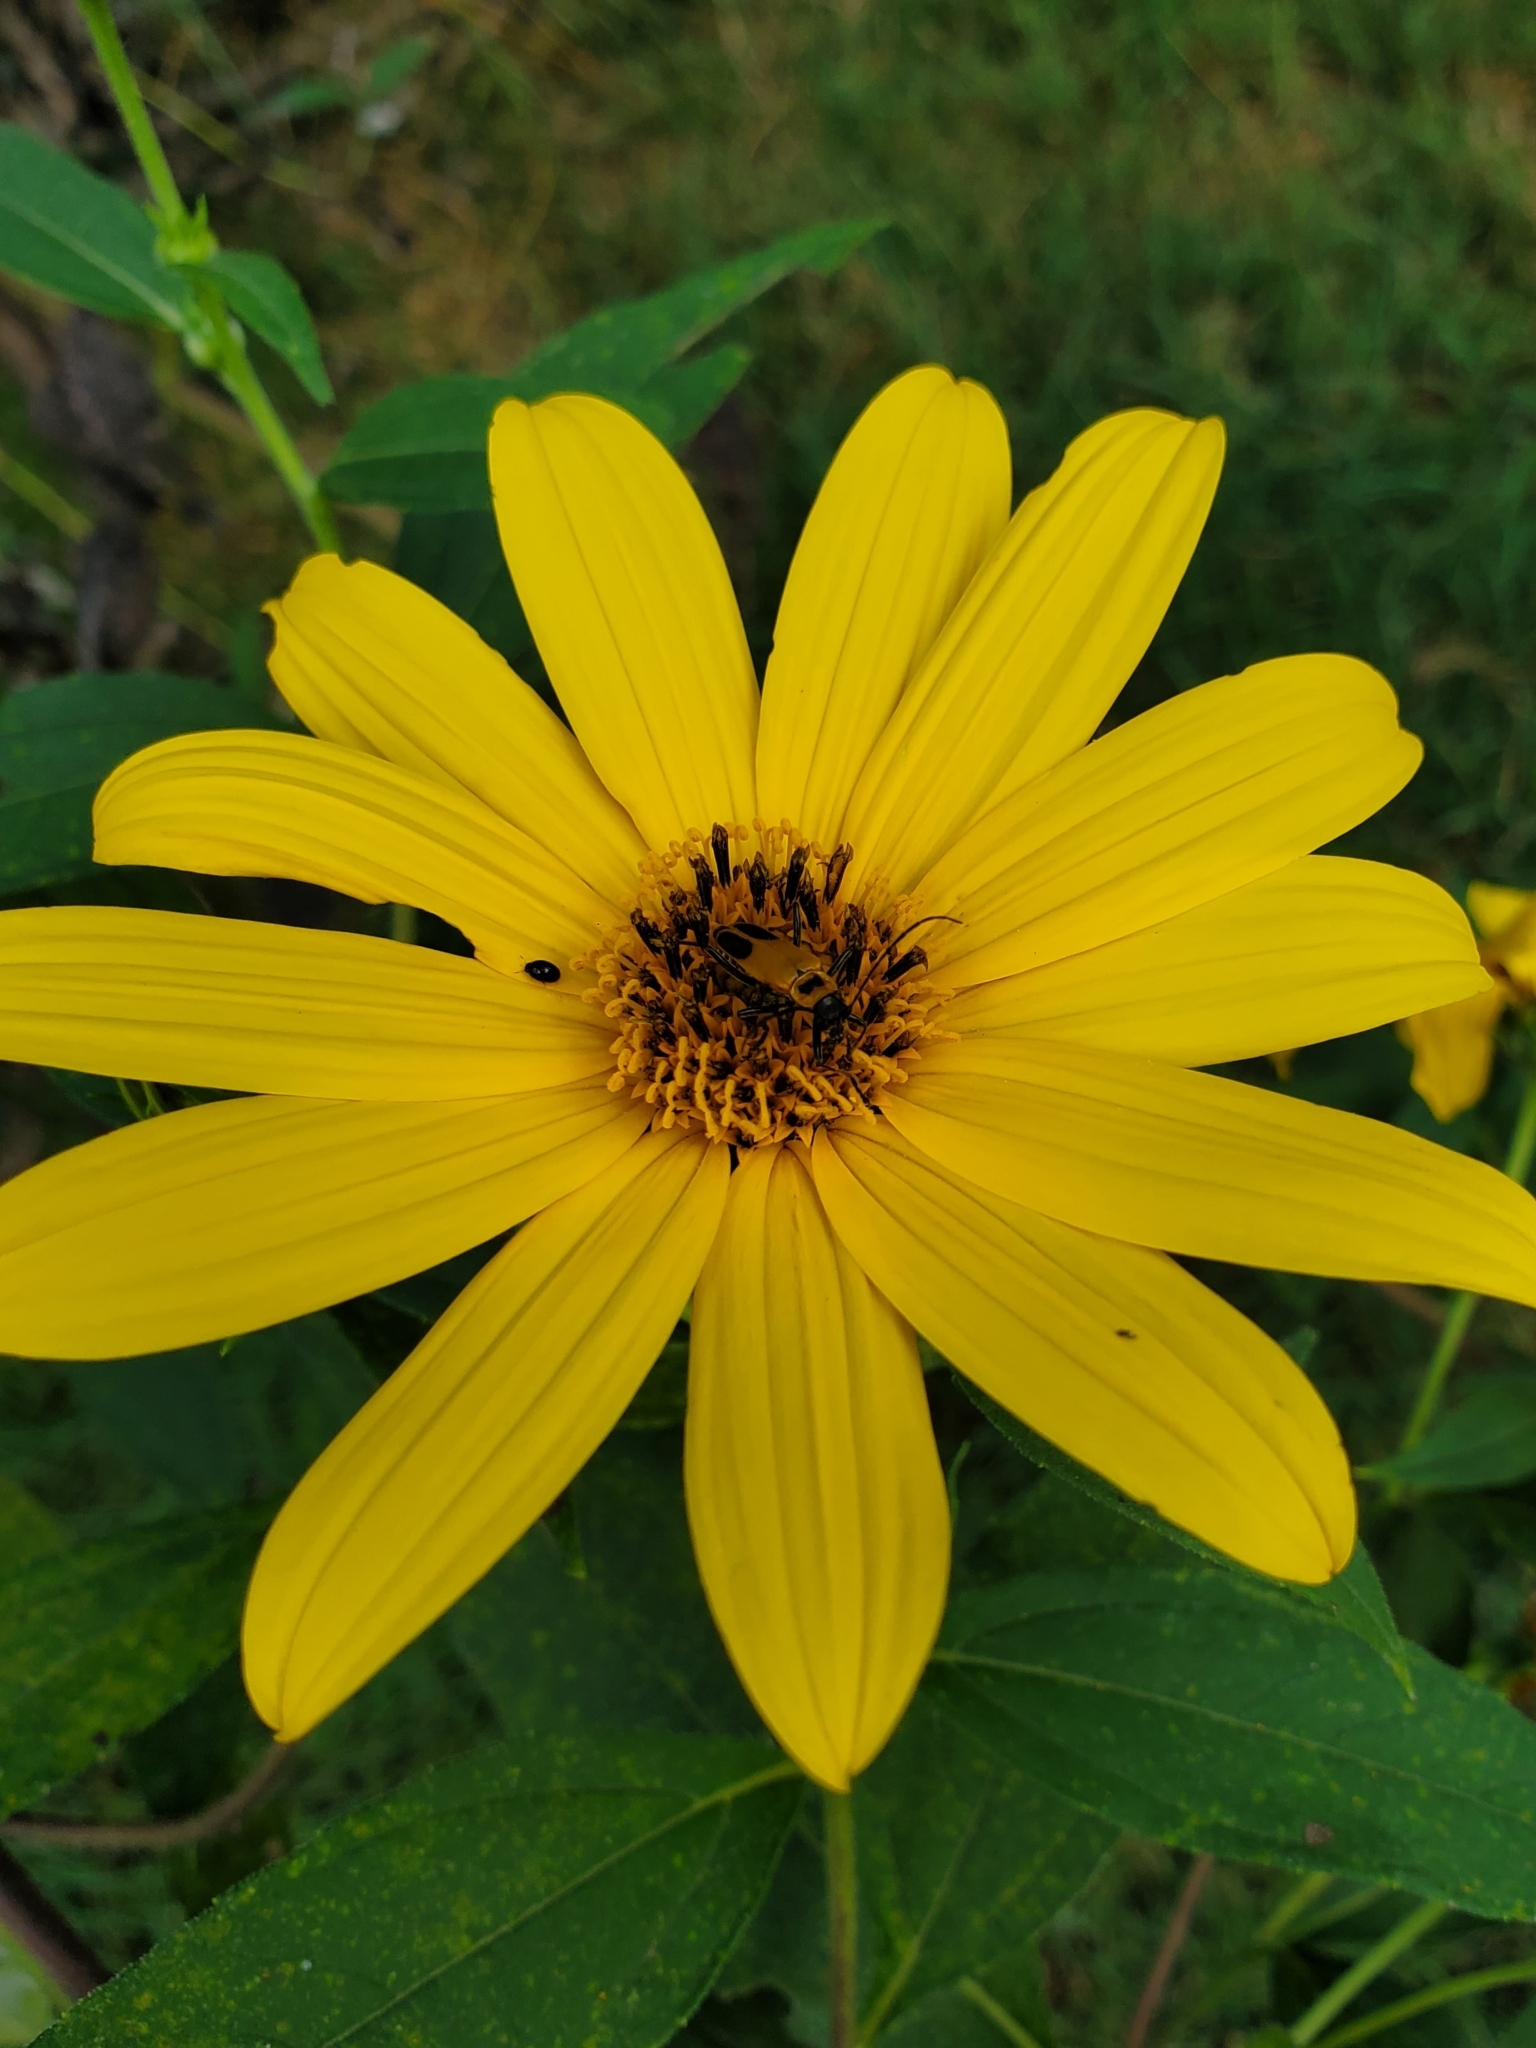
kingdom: Animalia
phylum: Arthropoda
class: Insecta
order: Coleoptera
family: Cantharidae
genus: Chauliognathus
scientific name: Chauliognathus pensylvanicus
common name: Goldenrod soldier beetle
